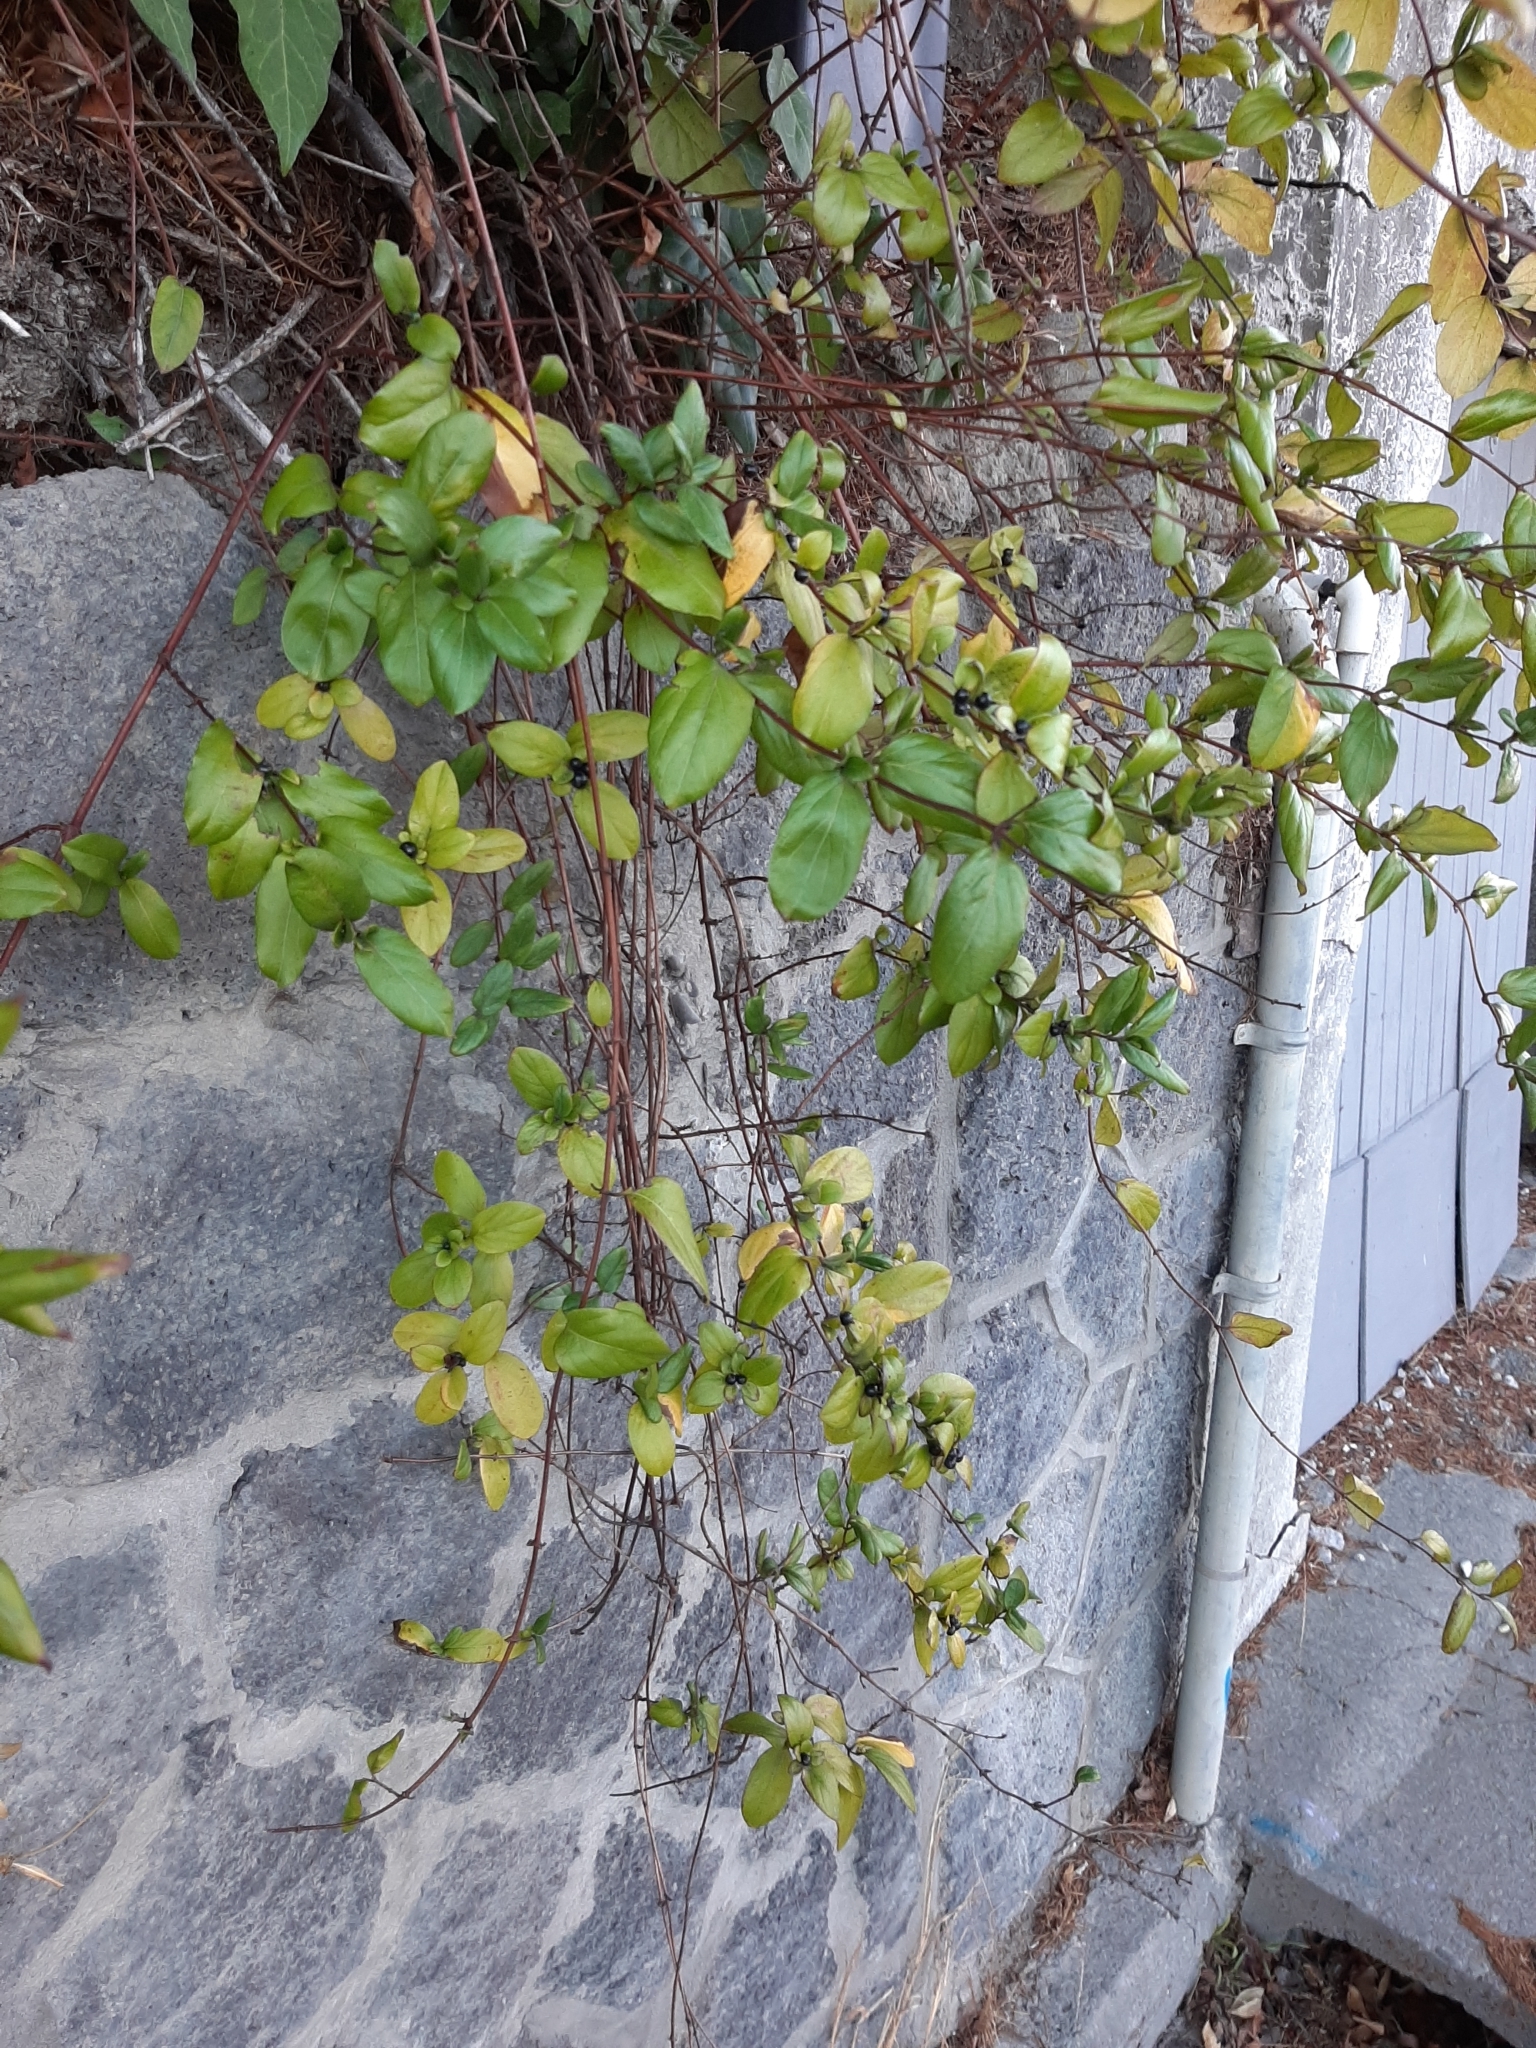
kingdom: Plantae
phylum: Tracheophyta
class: Magnoliopsida
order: Dipsacales
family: Caprifoliaceae
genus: Lonicera
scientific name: Lonicera japonica
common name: Japanese honeysuckle
